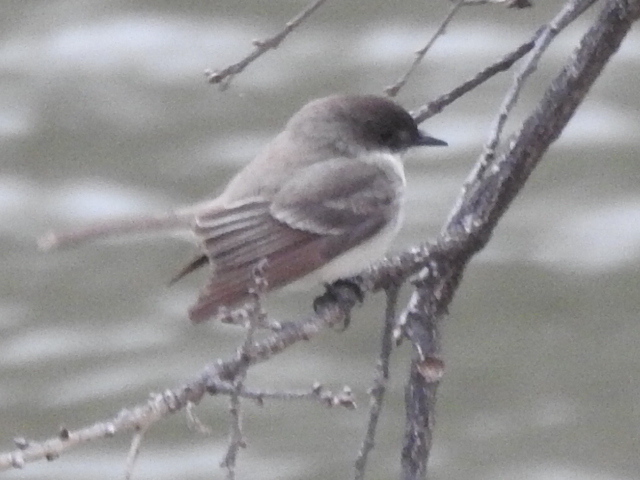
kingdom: Animalia
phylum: Chordata
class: Aves
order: Passeriformes
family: Tyrannidae
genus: Sayornis
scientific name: Sayornis phoebe
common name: Eastern phoebe
